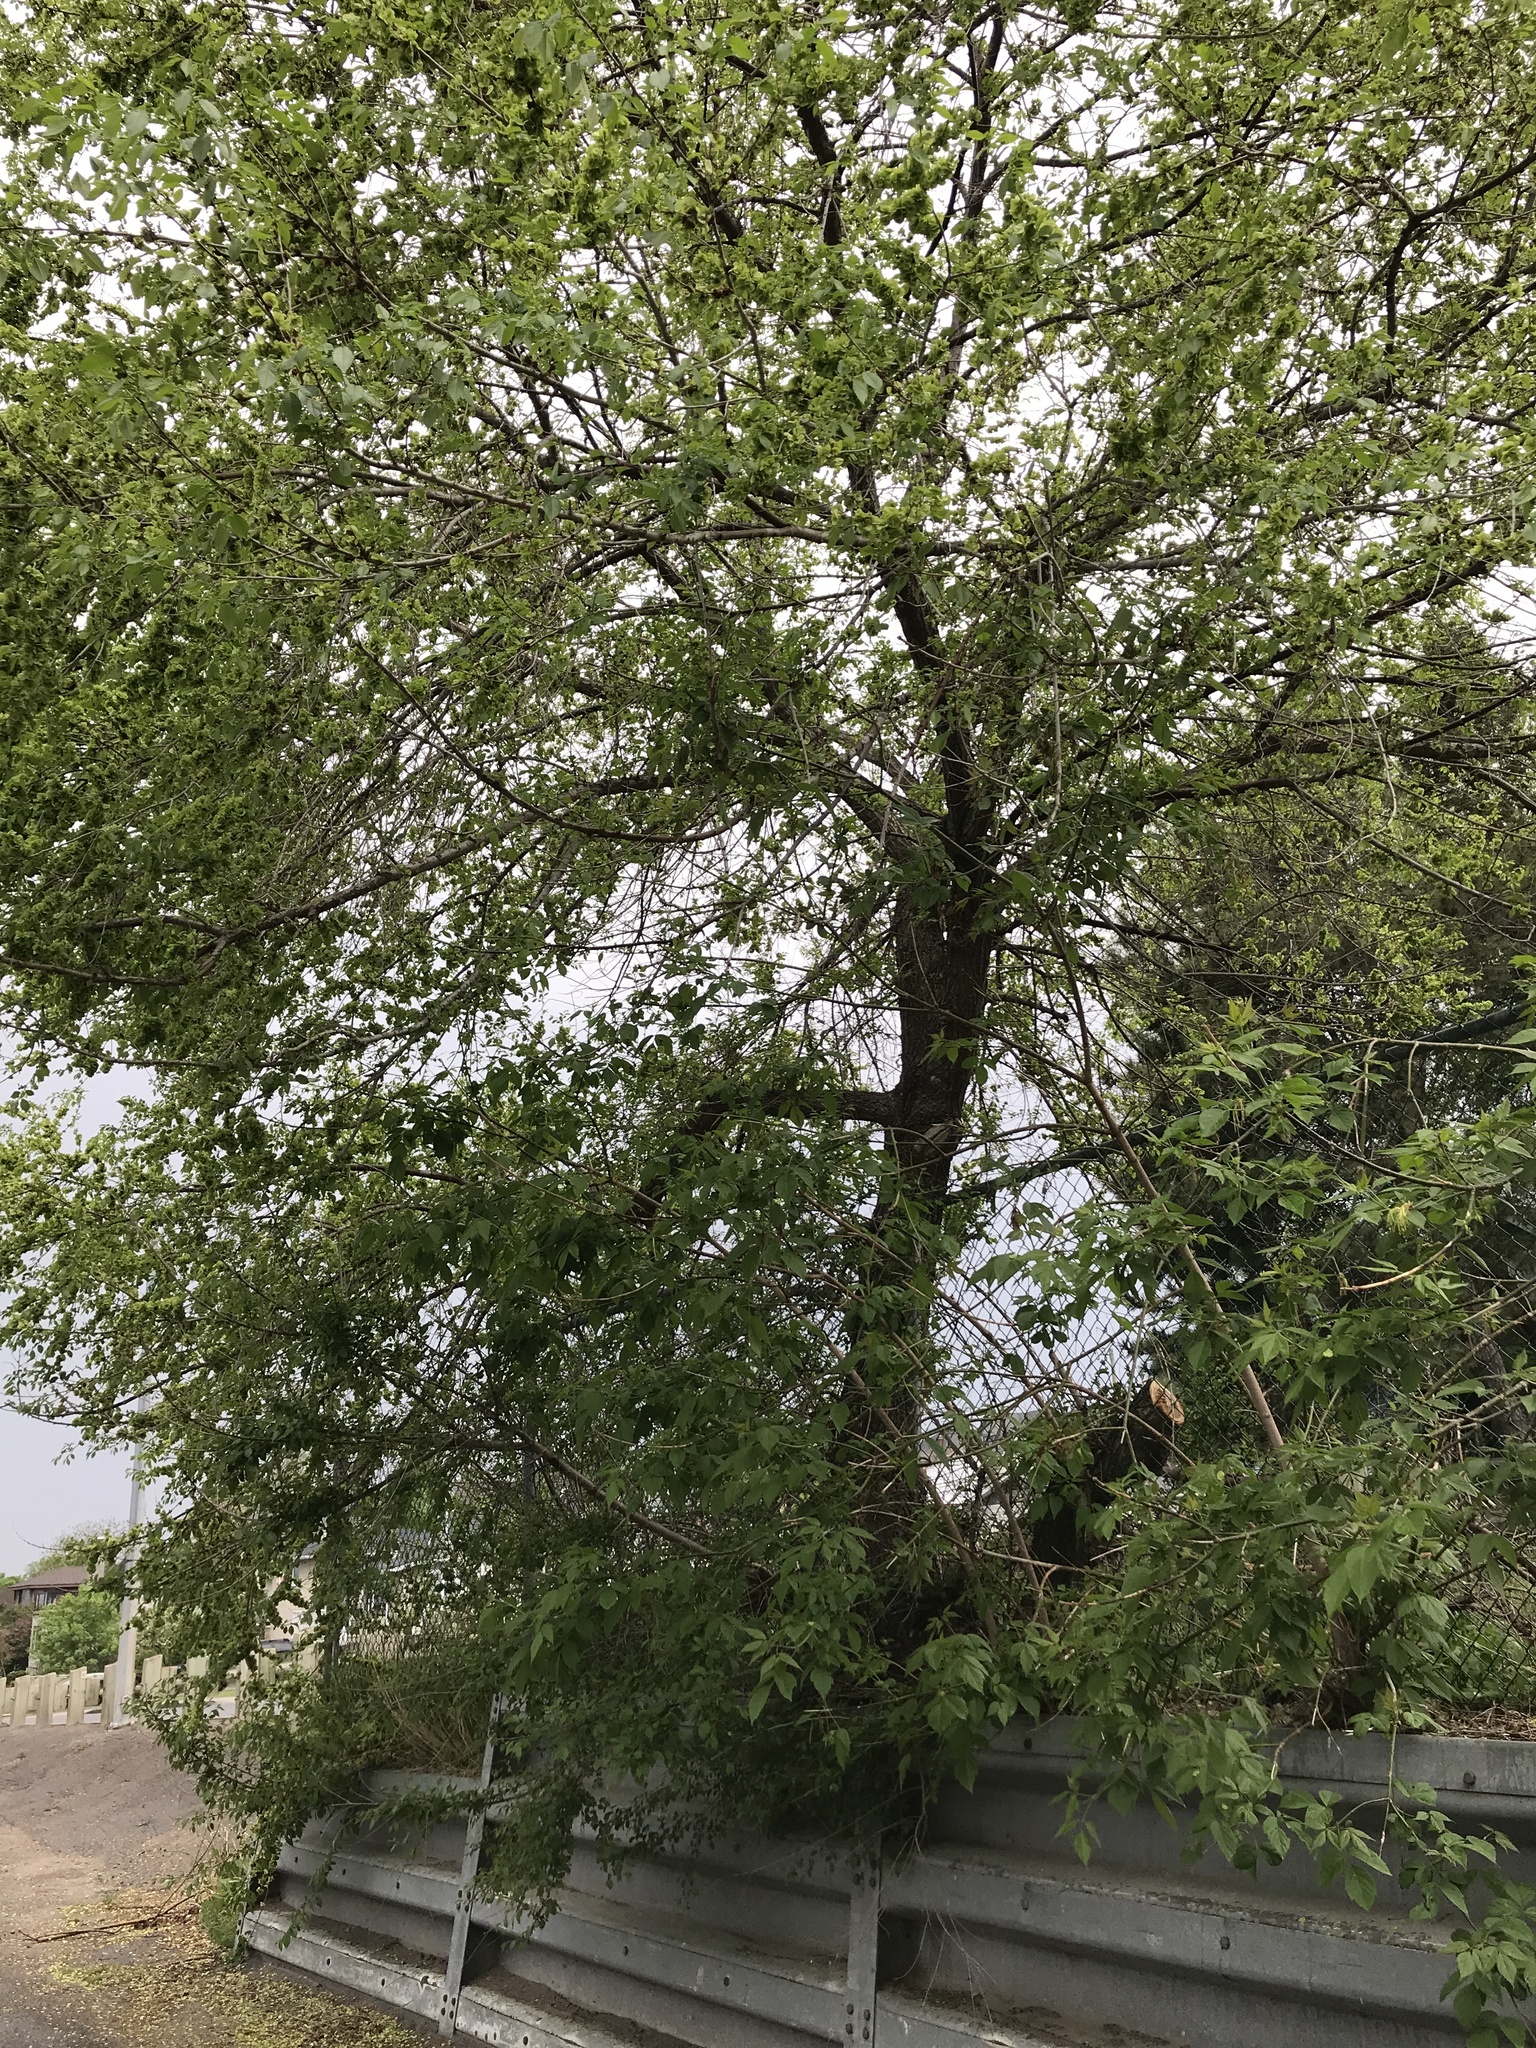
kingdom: Plantae
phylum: Tracheophyta
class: Magnoliopsida
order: Rosales
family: Ulmaceae
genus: Ulmus
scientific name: Ulmus pumila
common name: Siberian elm
